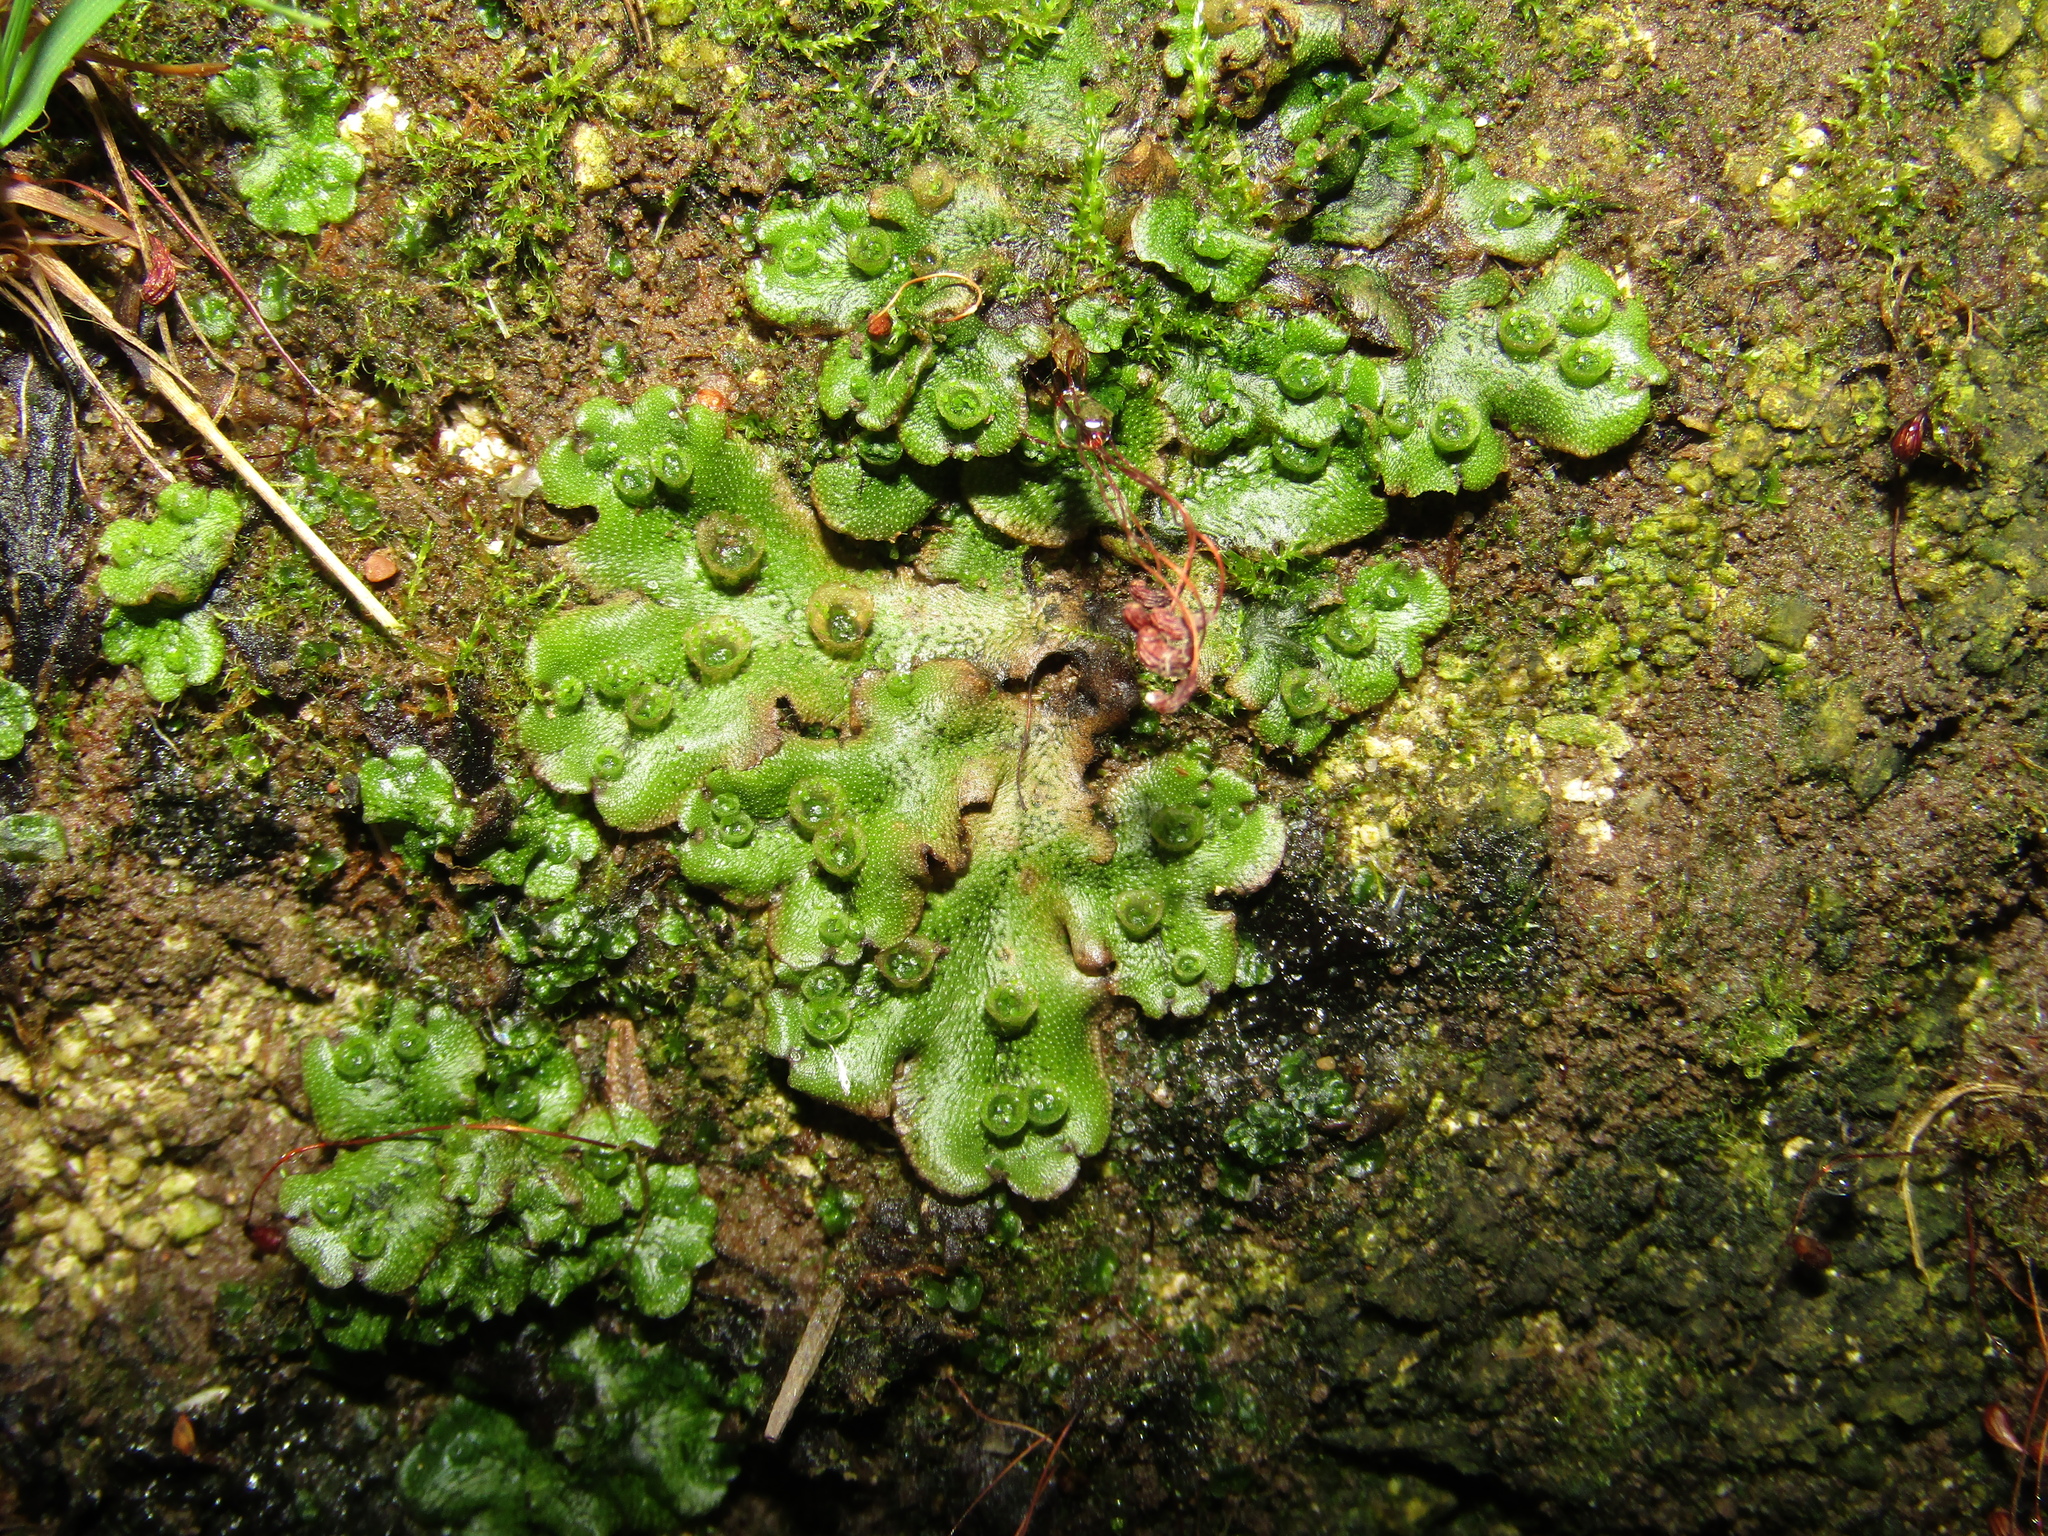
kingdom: Plantae
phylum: Marchantiophyta
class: Marchantiopsida
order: Marchantiales
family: Marchantiaceae
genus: Marchantia
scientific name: Marchantia polymorpha
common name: Common liverwort
